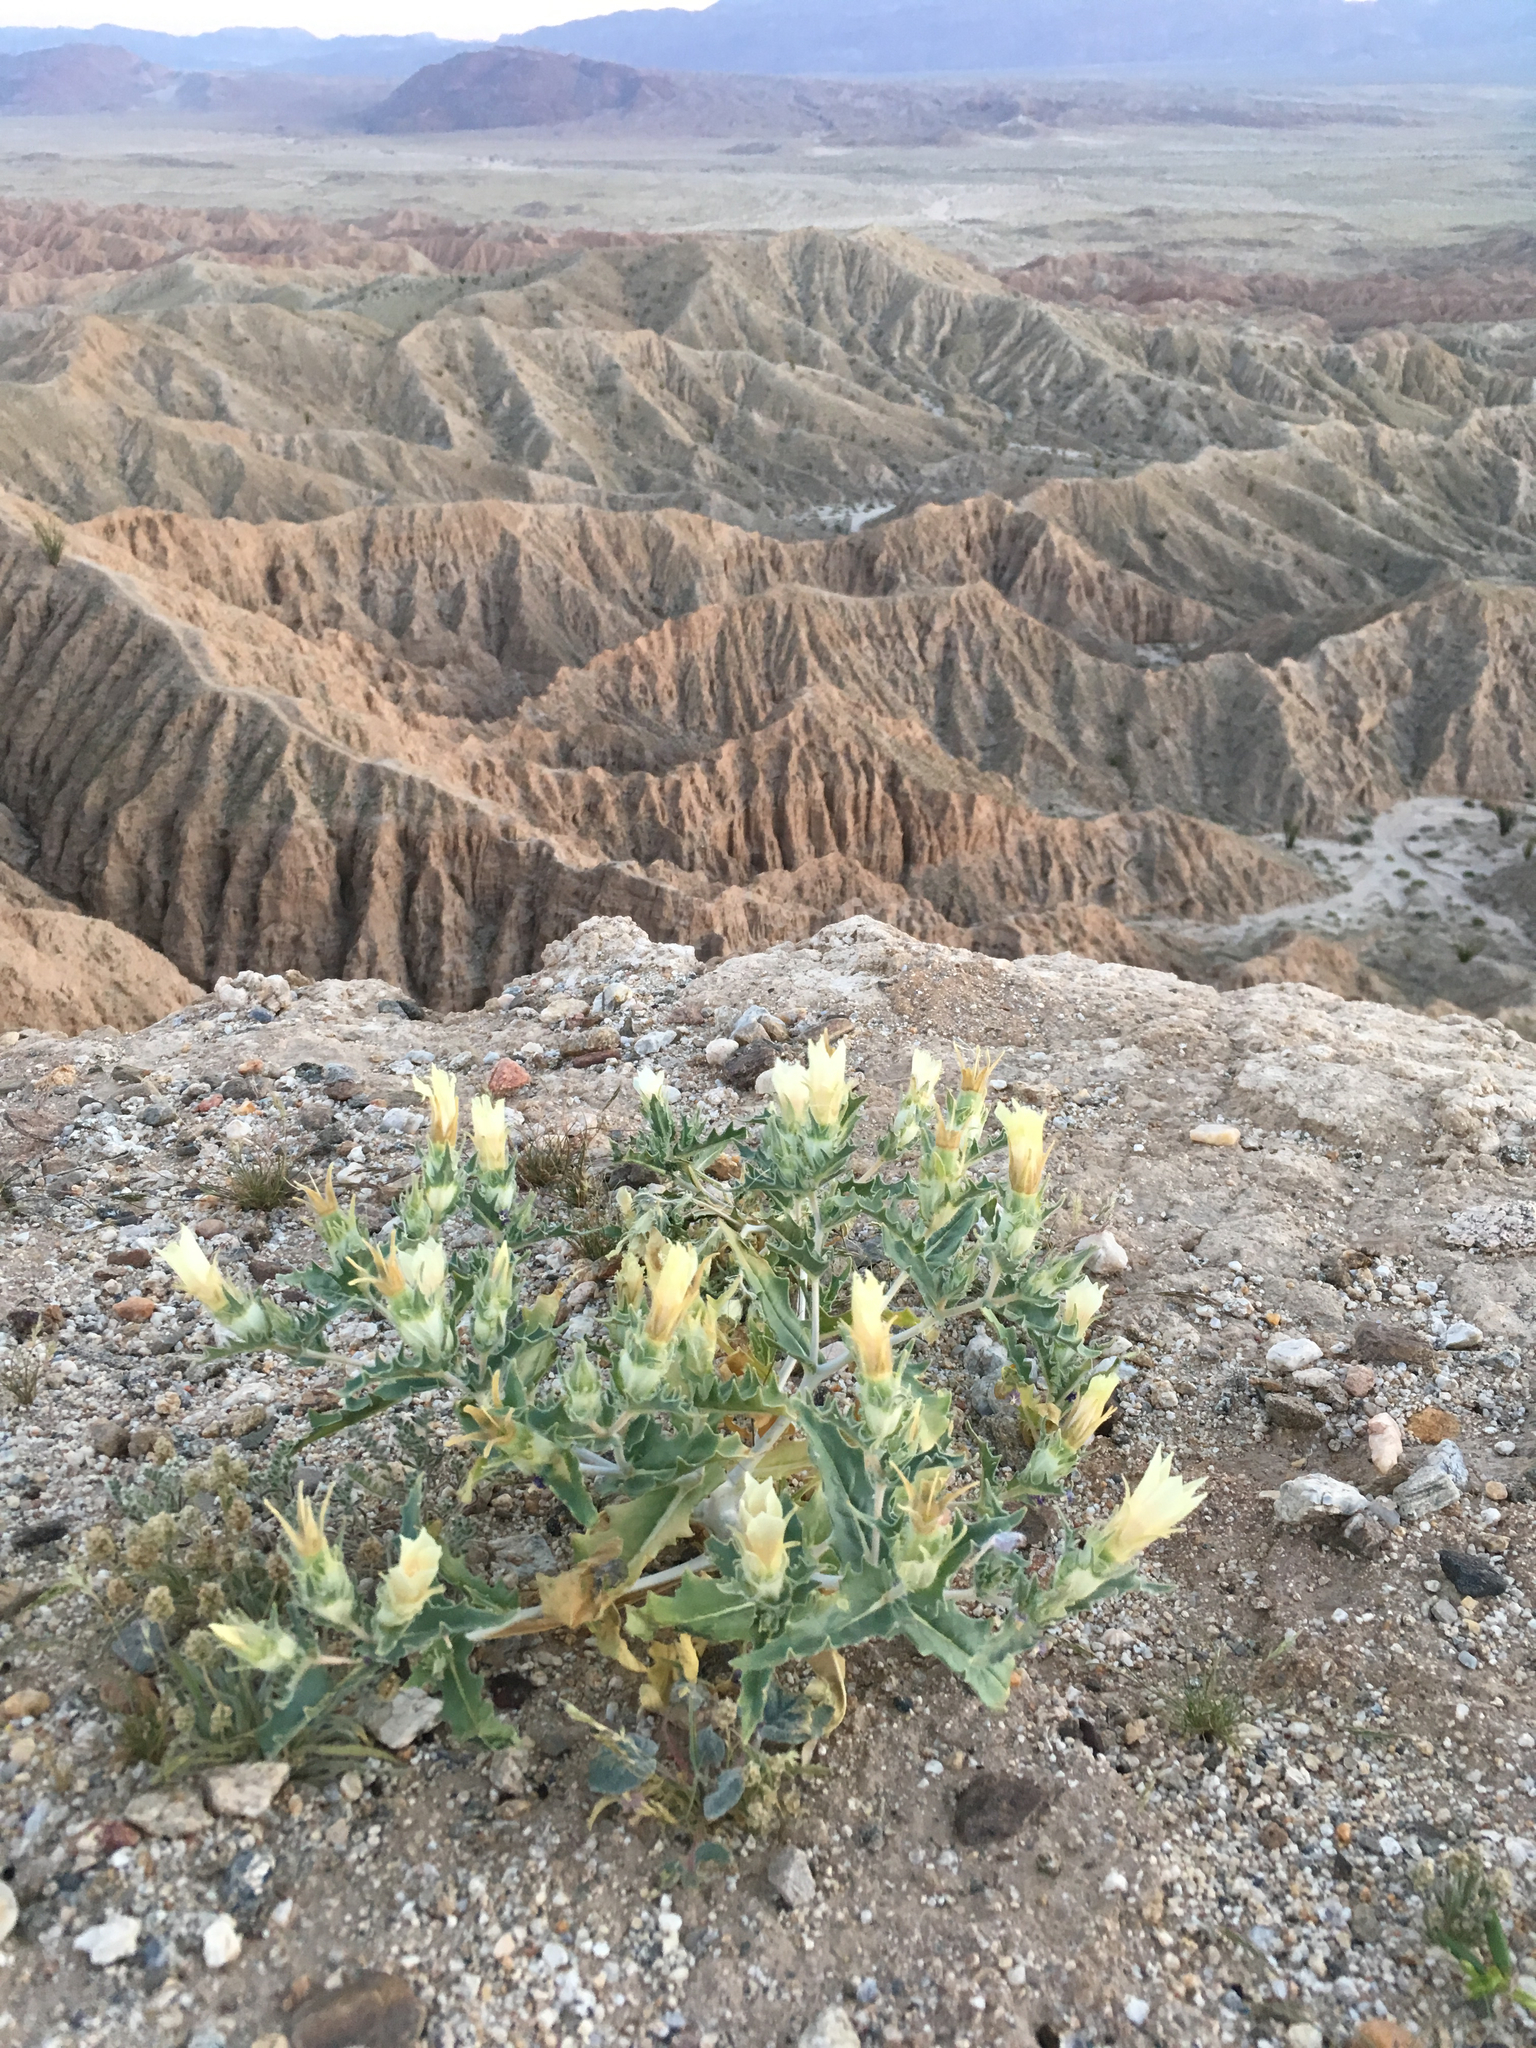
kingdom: Plantae
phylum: Tracheophyta
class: Magnoliopsida
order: Cornales
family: Loasaceae
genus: Mentzelia
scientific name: Mentzelia involucrata
